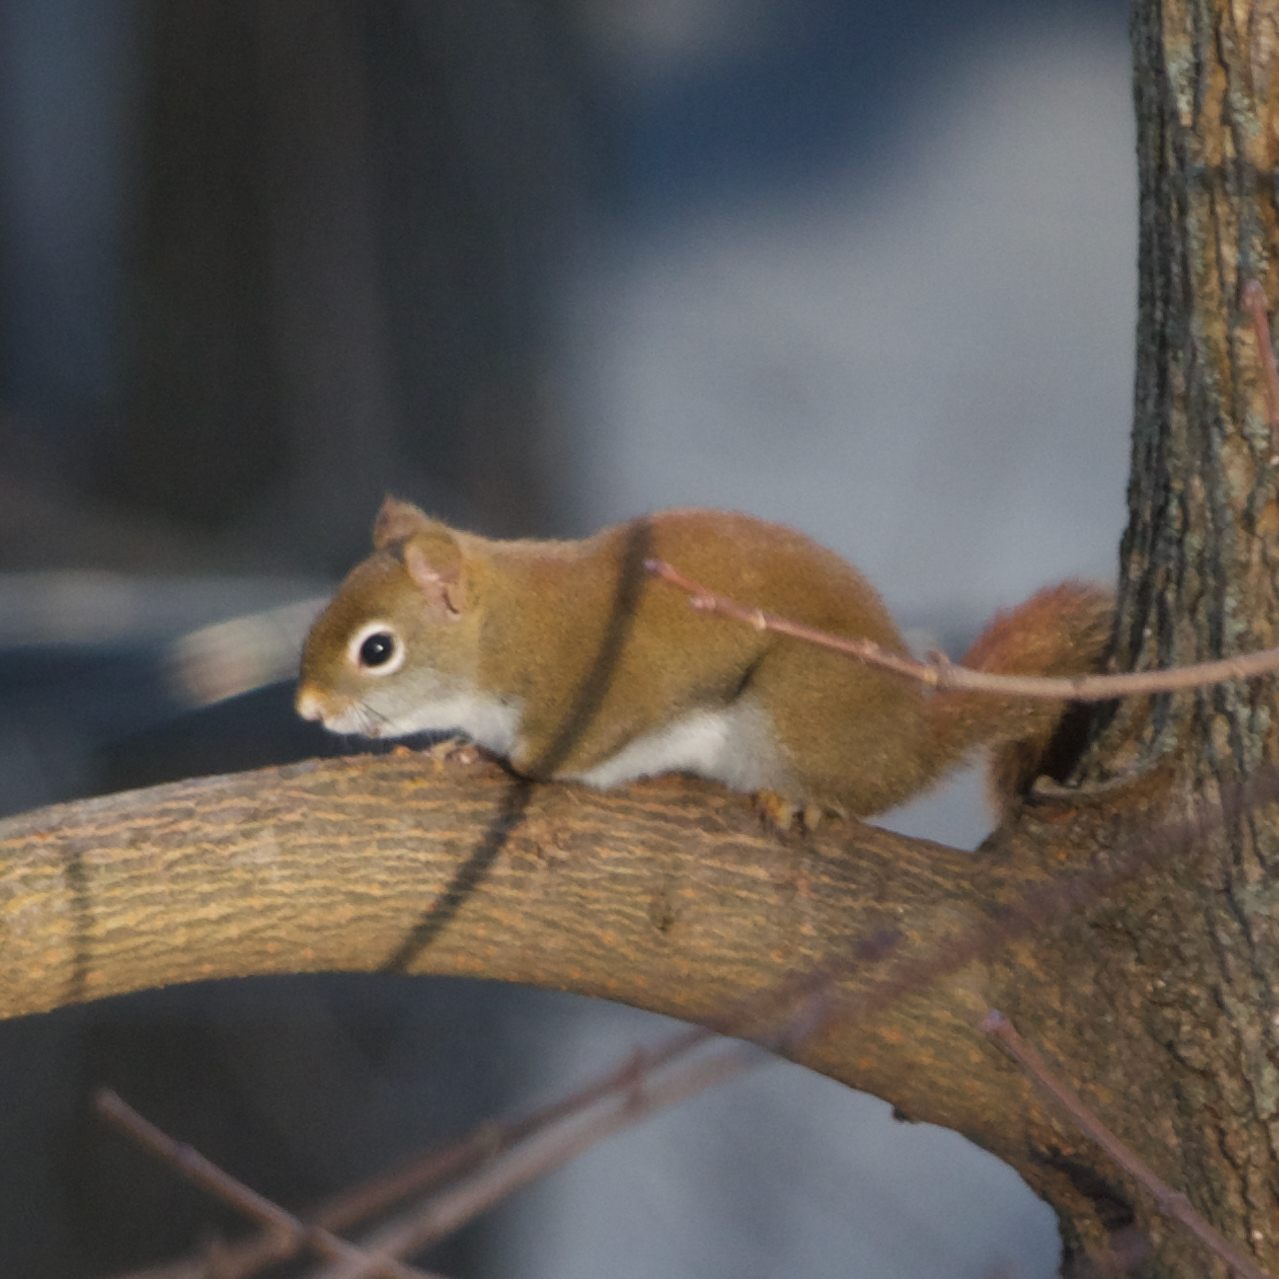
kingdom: Animalia
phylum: Chordata
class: Mammalia
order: Rodentia
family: Sciuridae
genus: Tamiasciurus
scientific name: Tamiasciurus hudsonicus
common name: Red squirrel
